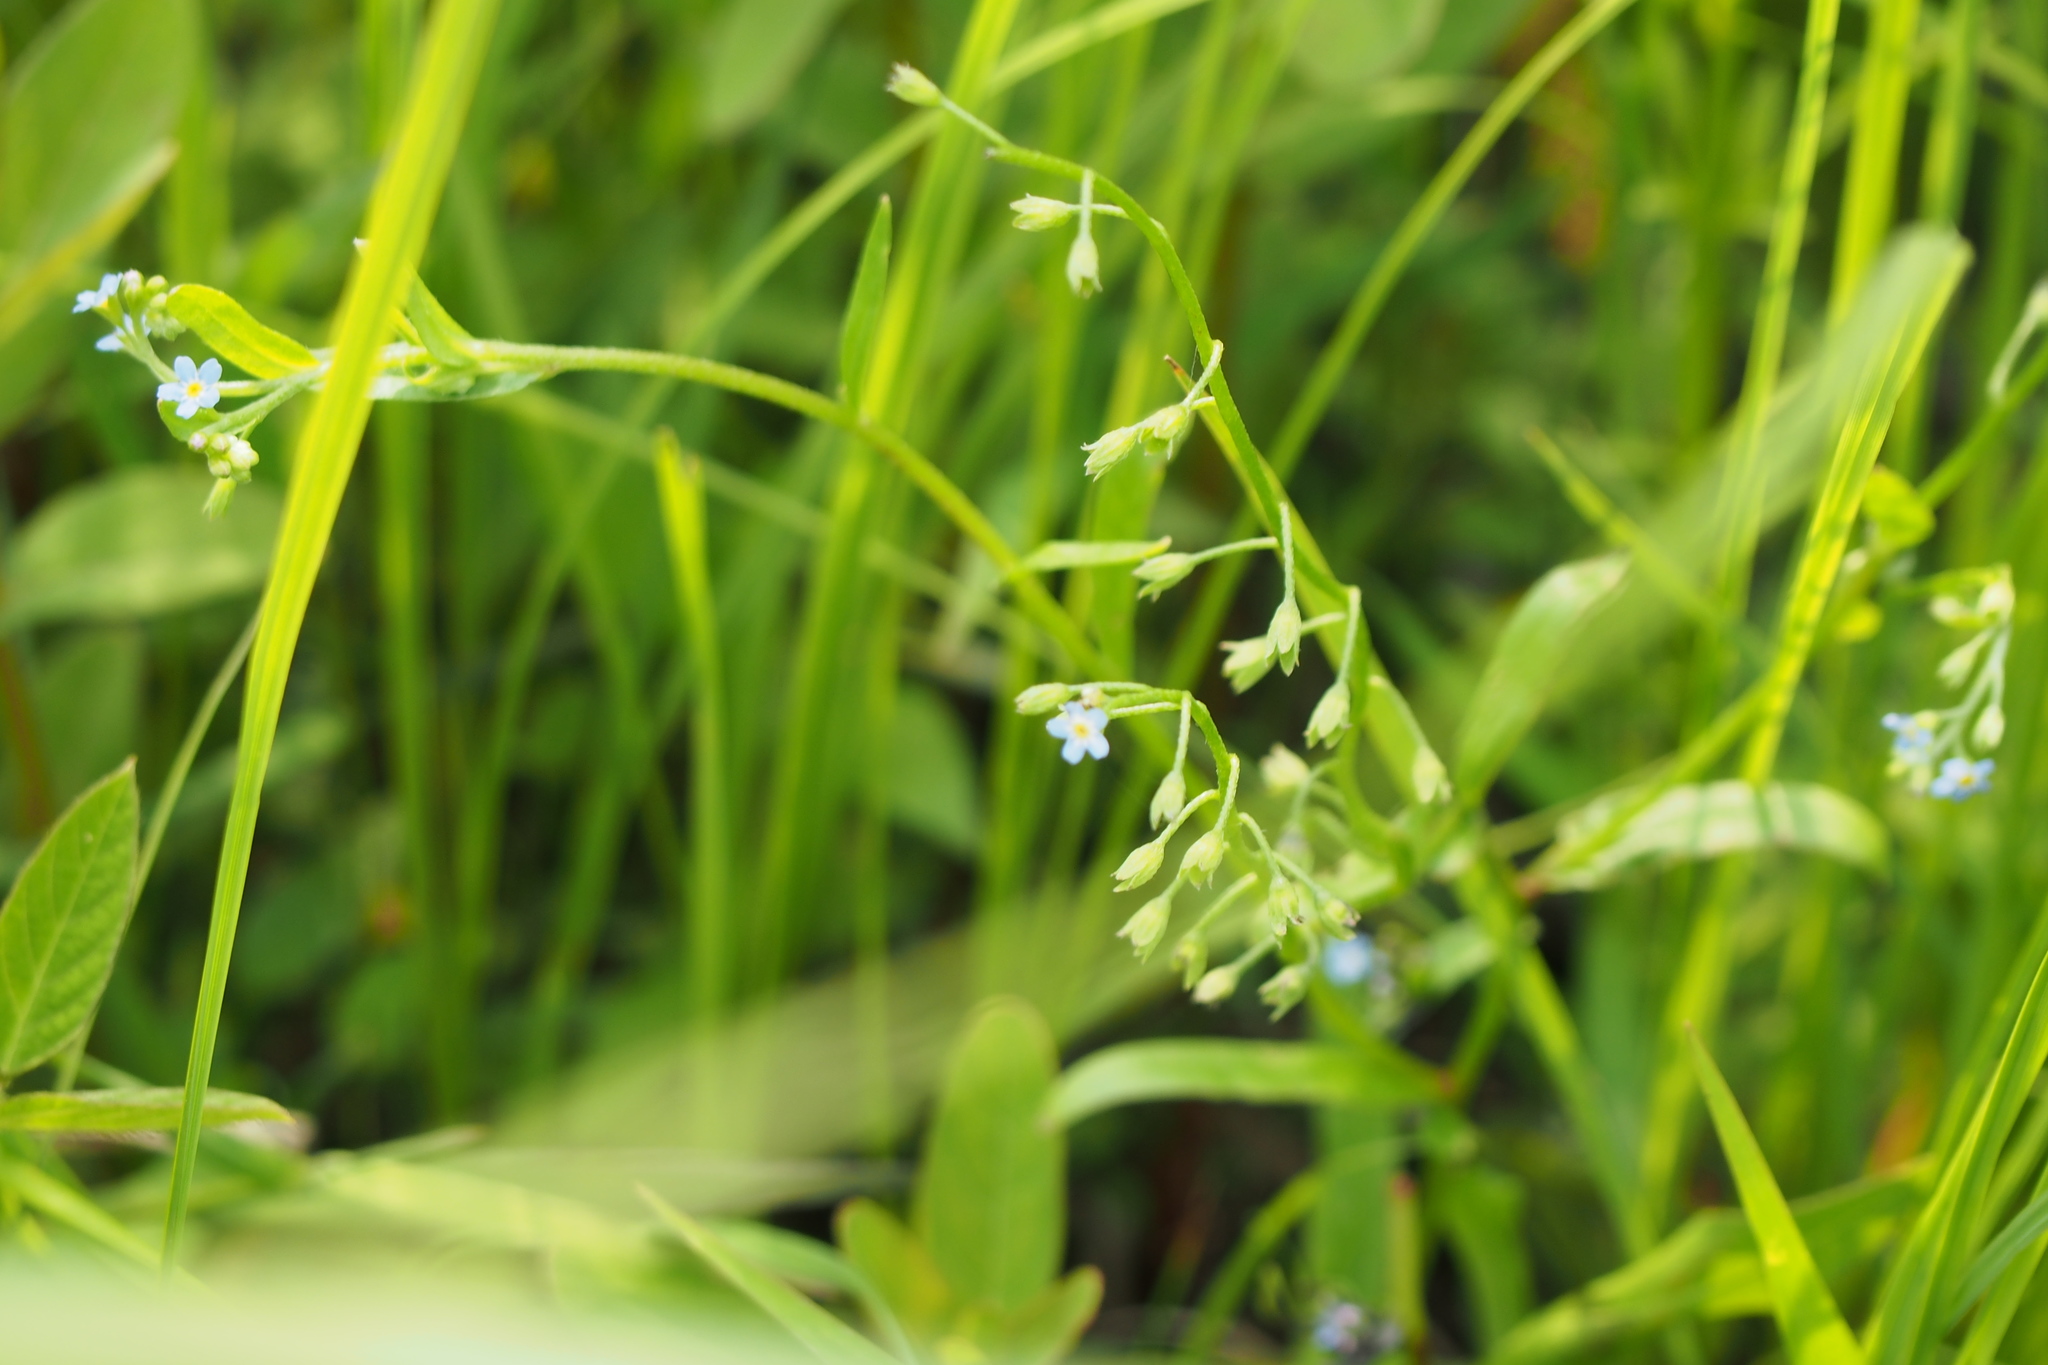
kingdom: Plantae
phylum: Tracheophyta
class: Magnoliopsida
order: Boraginales
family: Boraginaceae
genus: Myosotis
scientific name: Myosotis laxa
